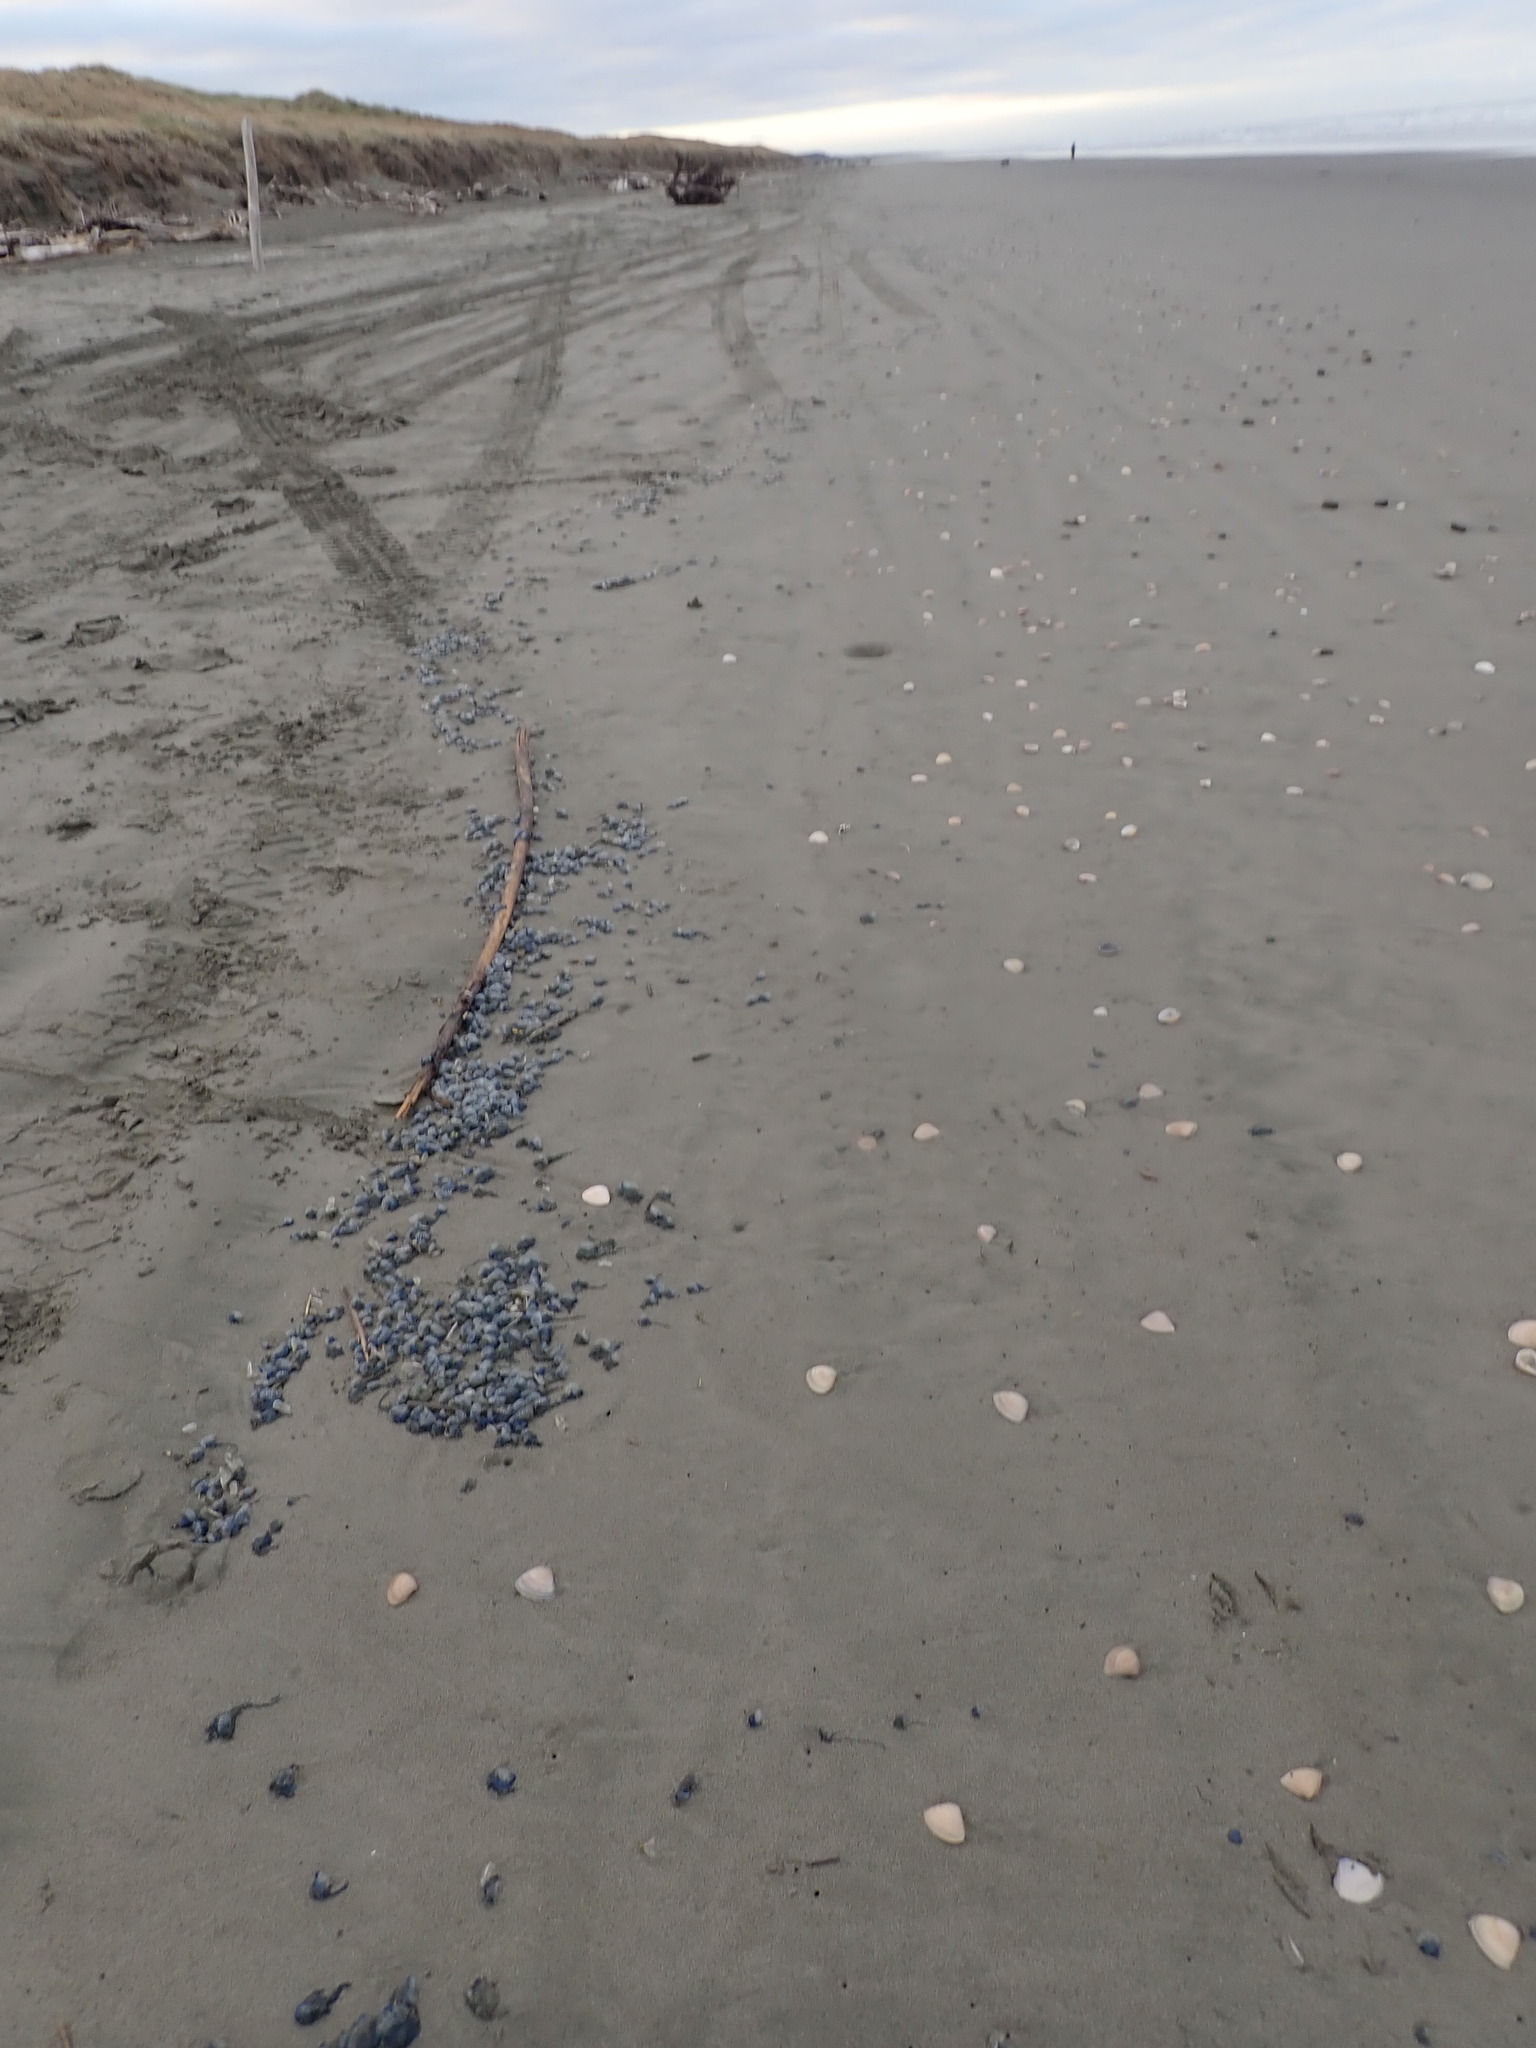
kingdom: Animalia
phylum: Cnidaria
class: Hydrozoa
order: Siphonophorae
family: Physaliidae
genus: Physalia
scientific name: Physalia physalis
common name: Portuguese man-of-war
